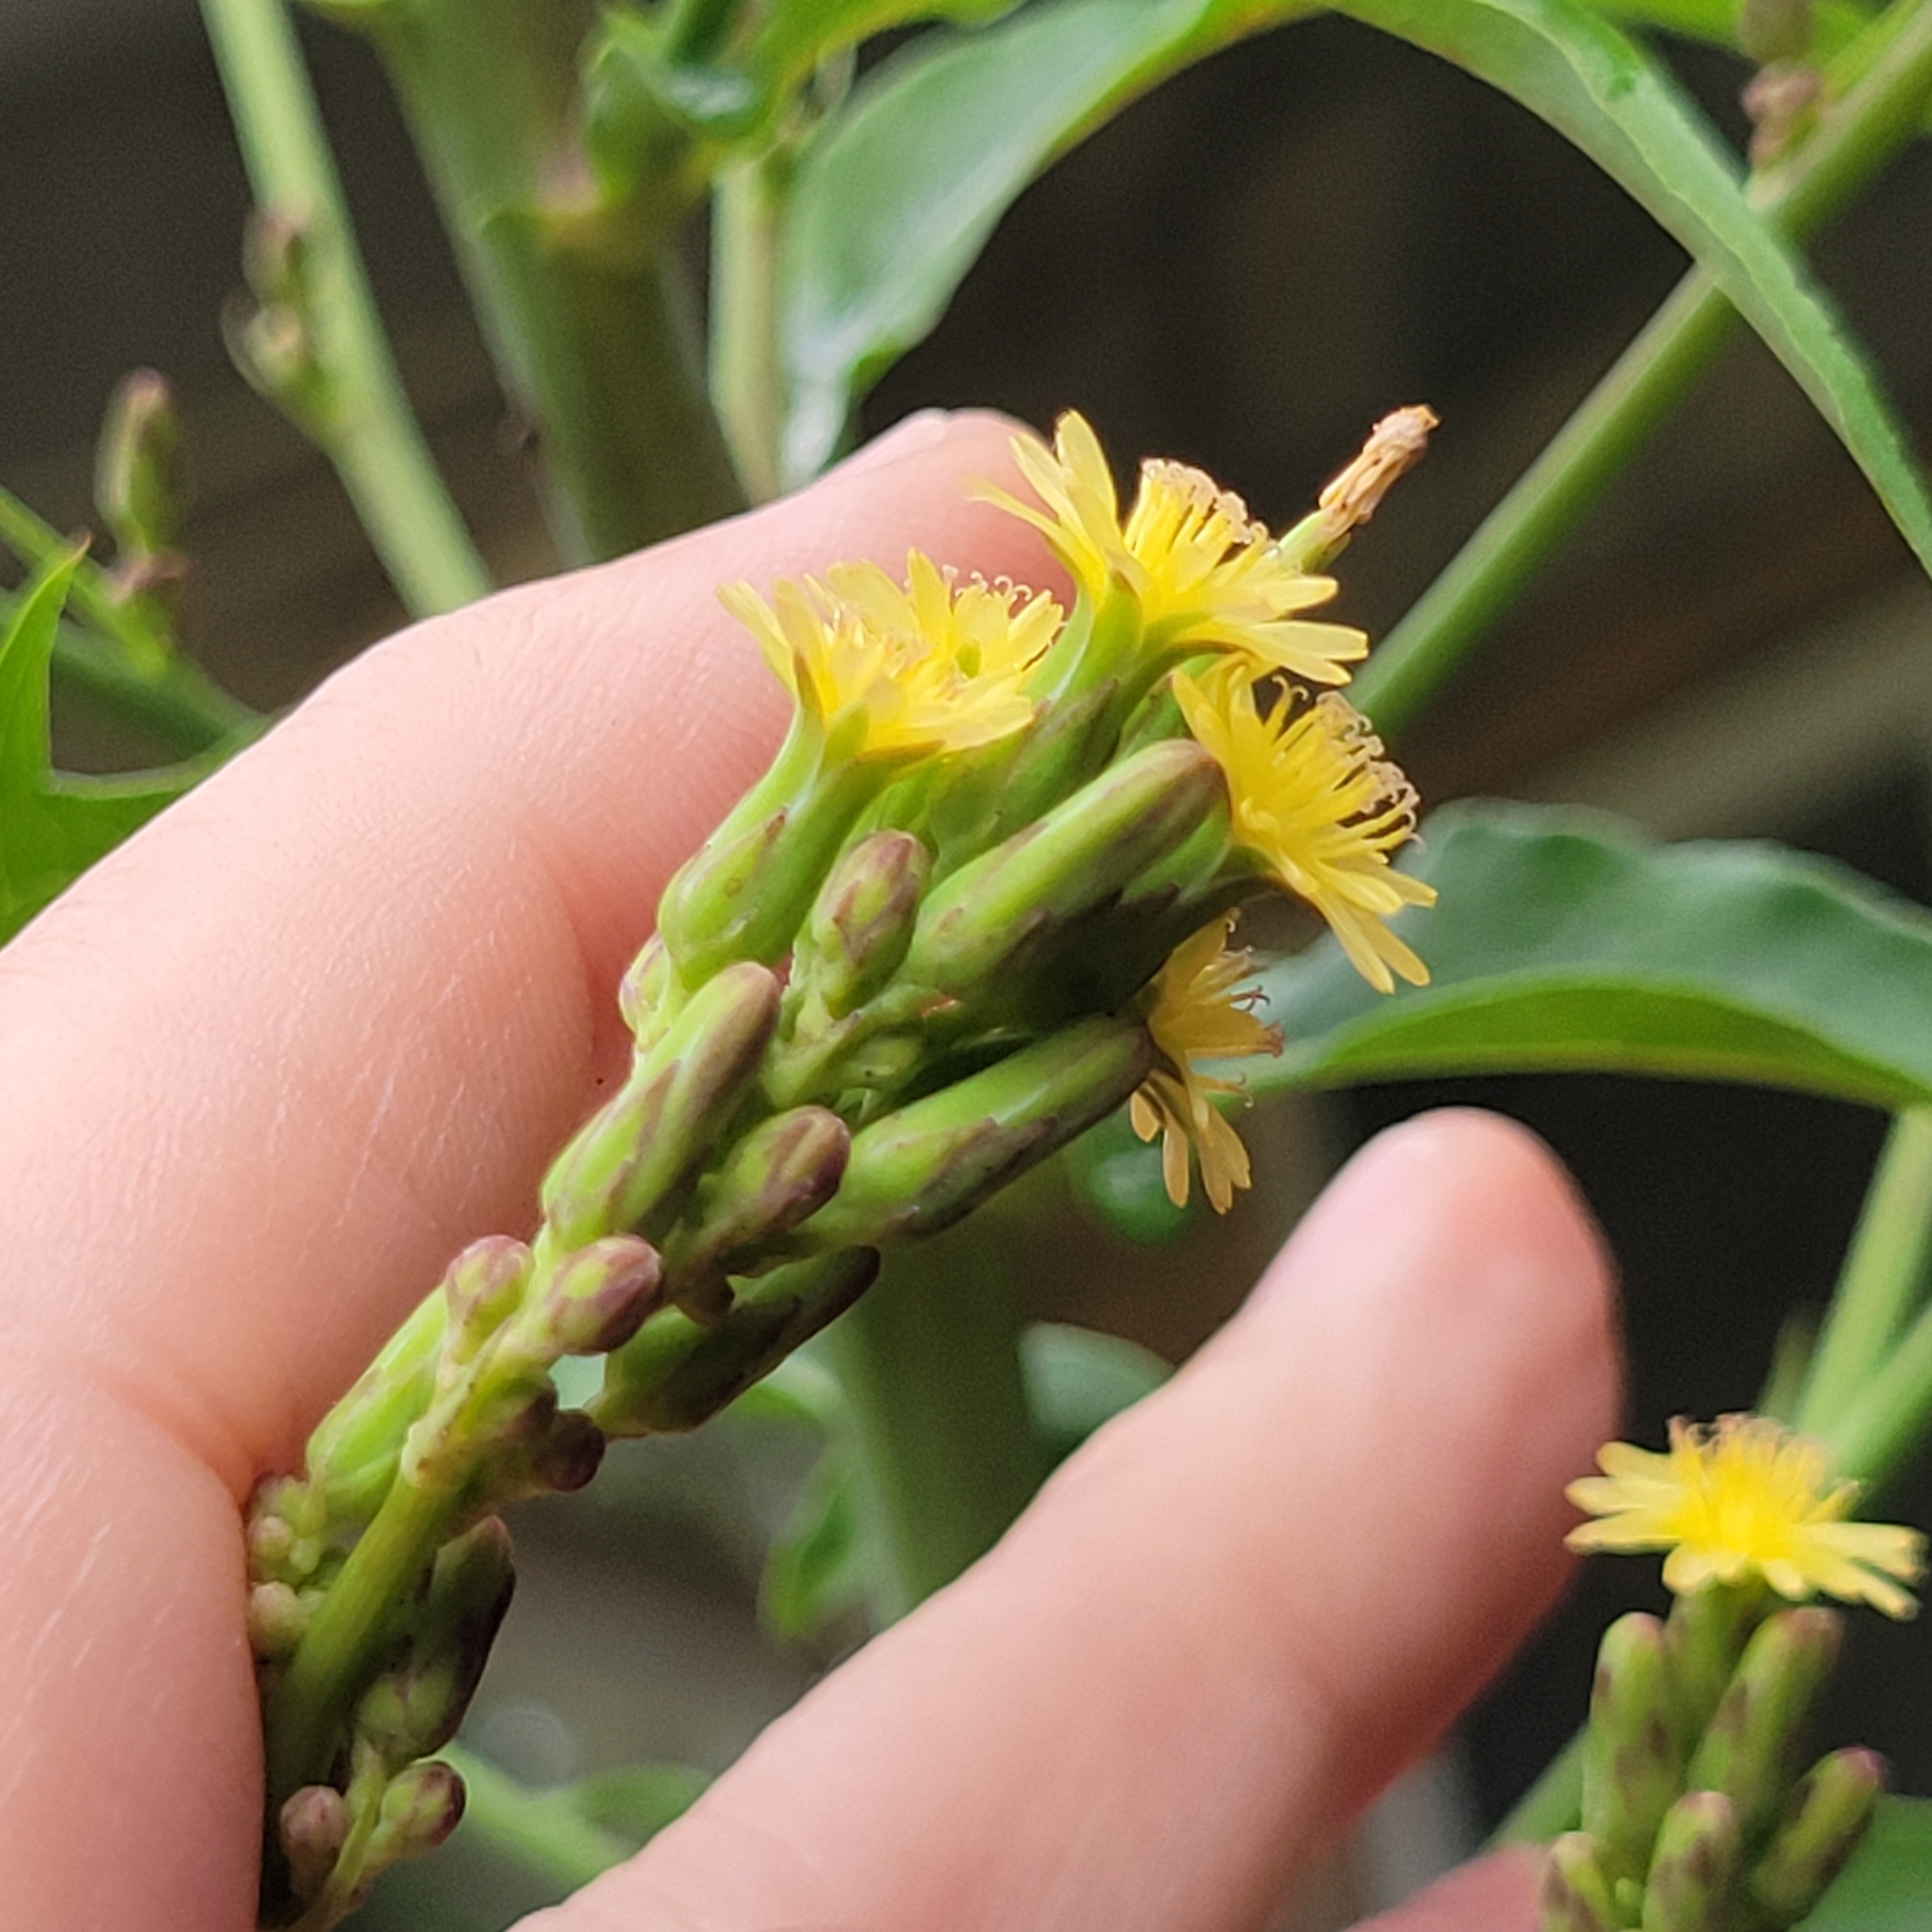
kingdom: Plantae
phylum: Tracheophyta
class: Magnoliopsida
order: Asterales
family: Asteraceae
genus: Lactuca
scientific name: Lactuca canadensis
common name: Canada lettuce
